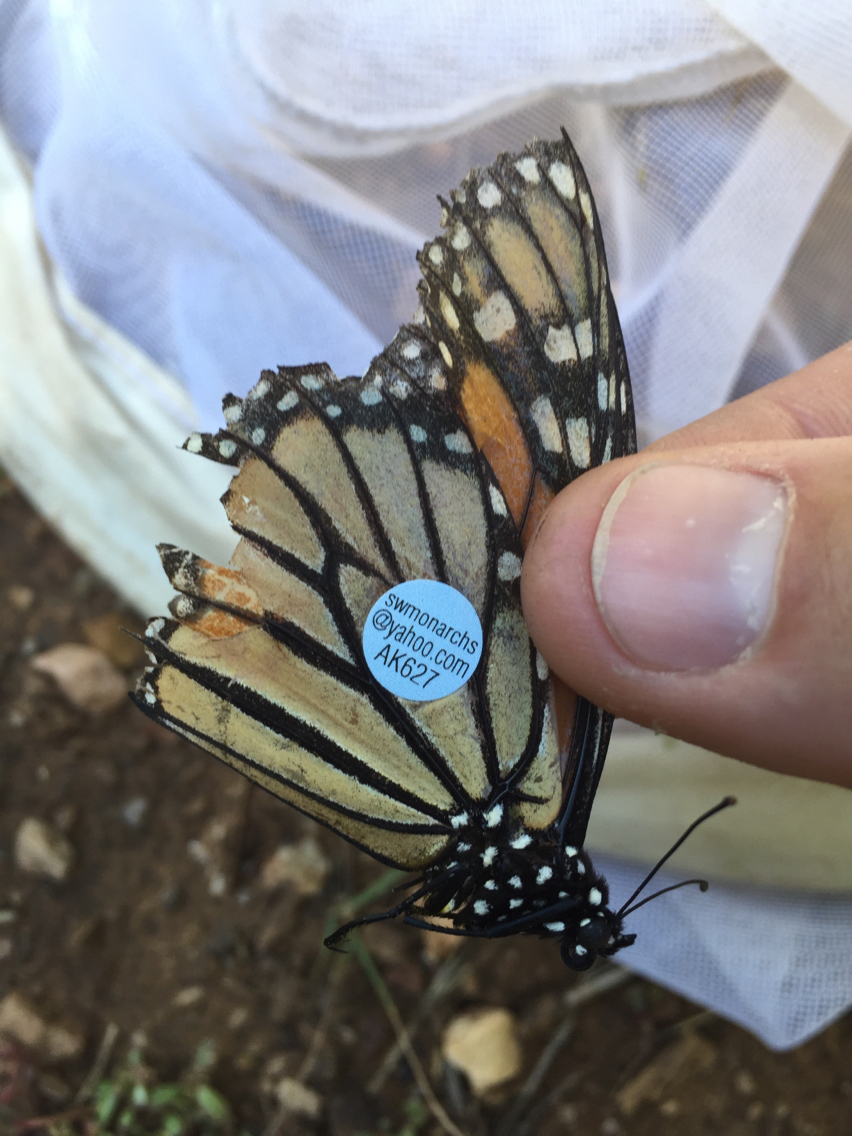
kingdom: Animalia
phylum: Arthropoda
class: Insecta
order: Lepidoptera
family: Nymphalidae
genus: Danaus
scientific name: Danaus plexippus
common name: Monarch
